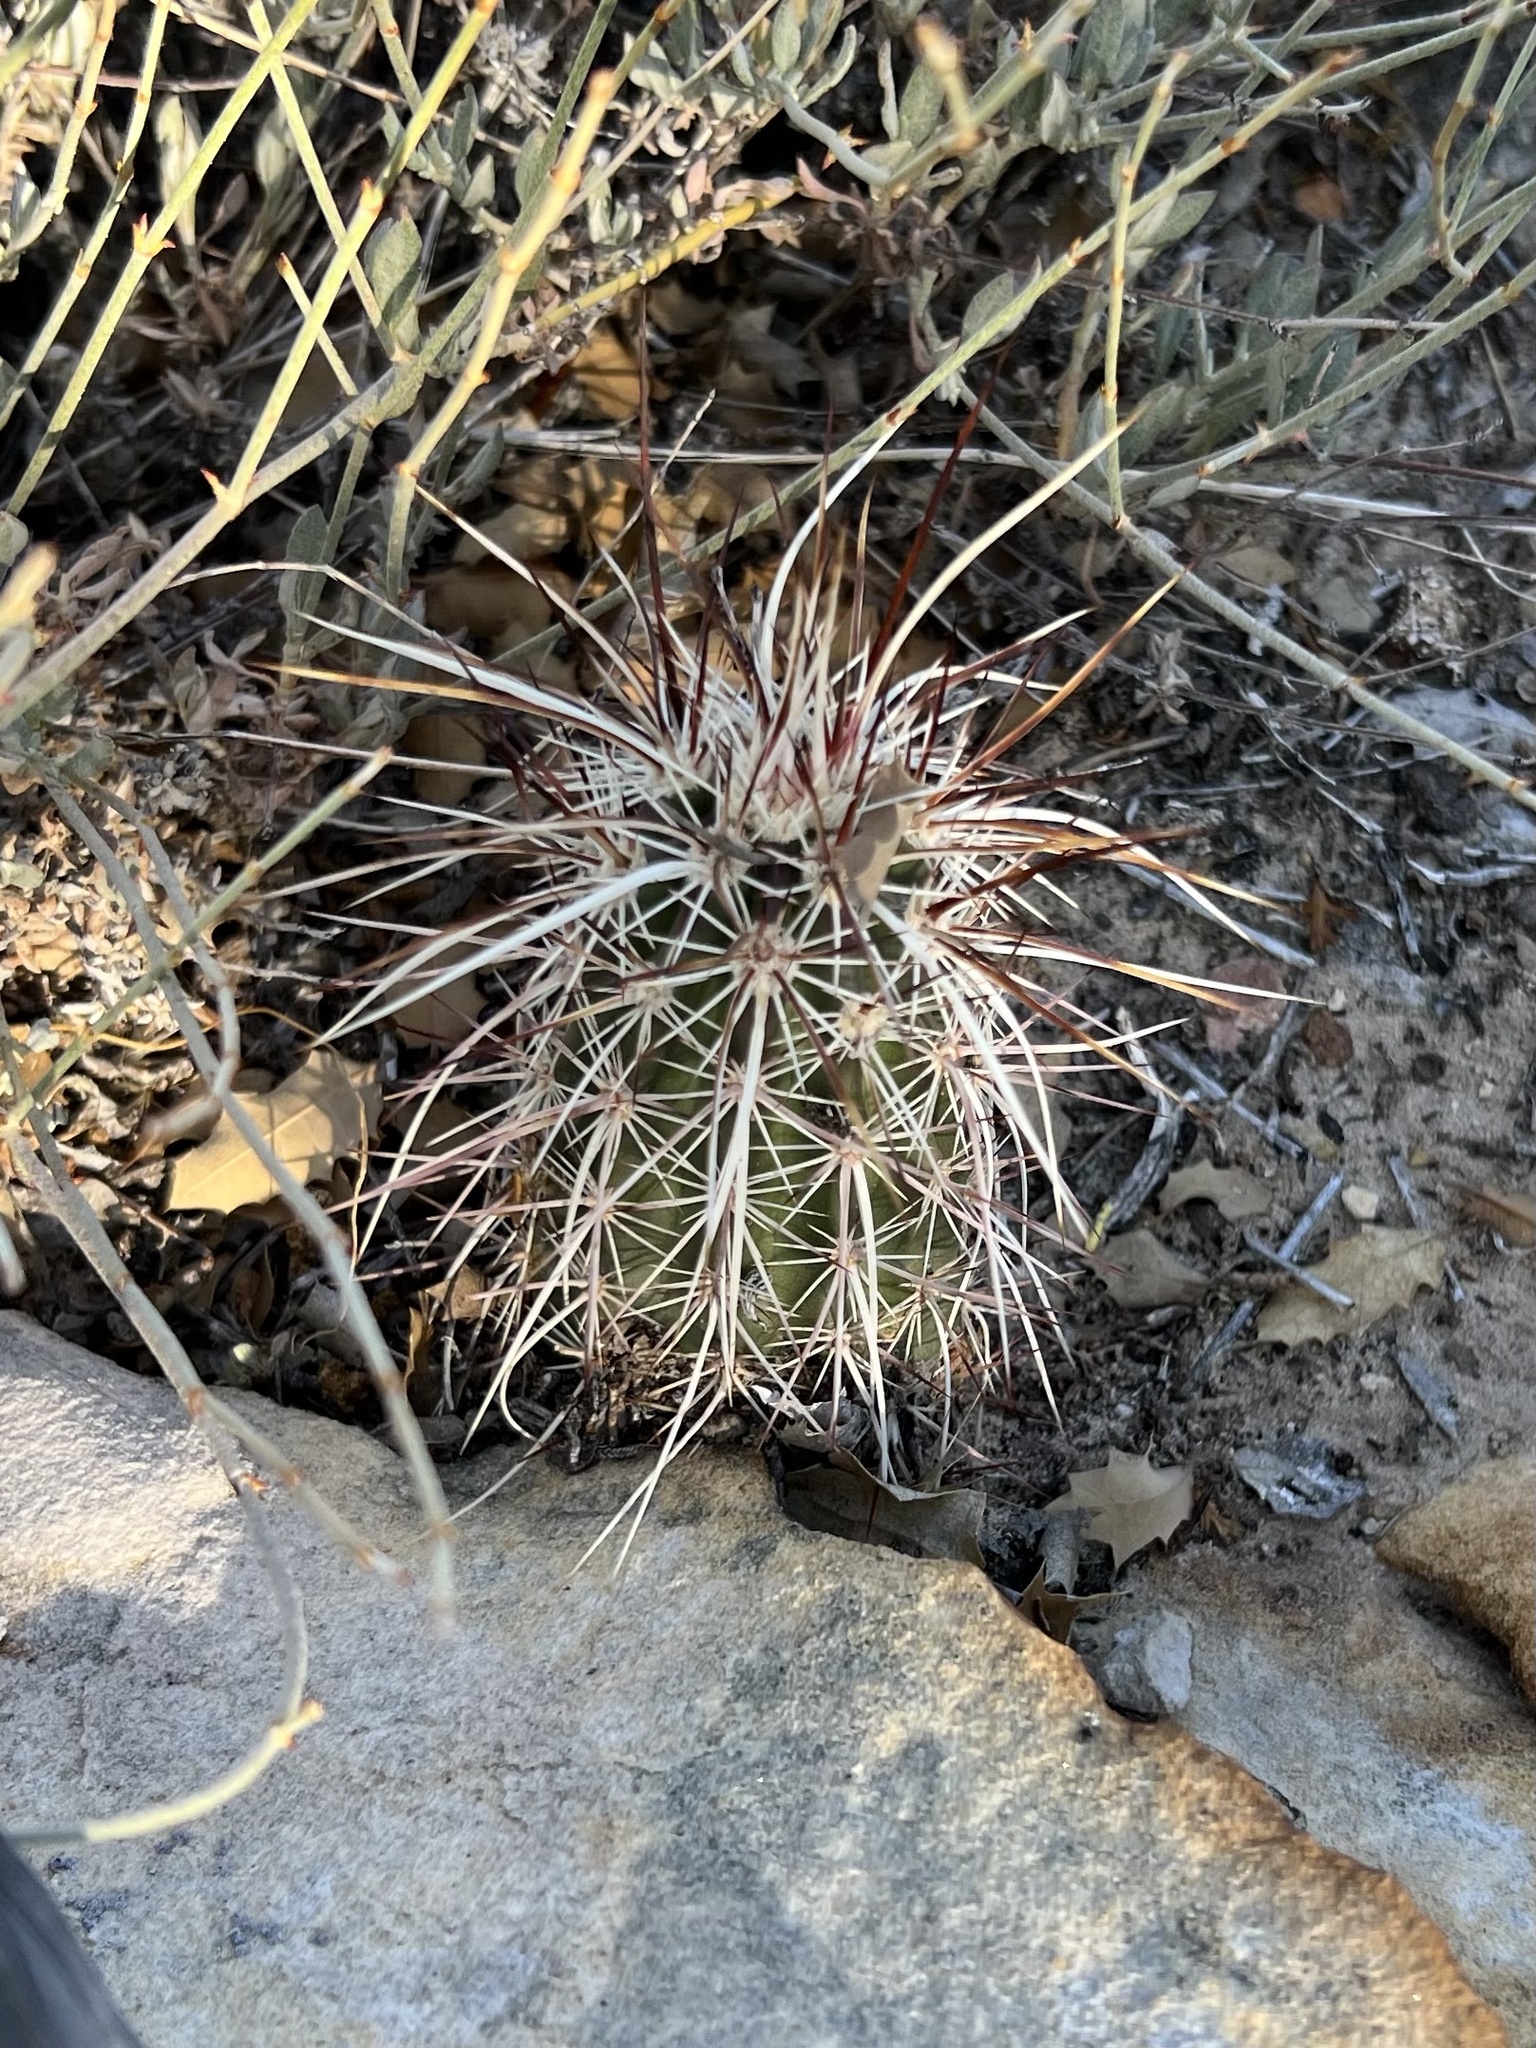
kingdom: Plantae
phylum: Tracheophyta
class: Magnoliopsida
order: Caryophyllales
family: Cactaceae
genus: Echinocereus
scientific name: Echinocereus engelmannii
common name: Engelmann's hedgehog cactus
